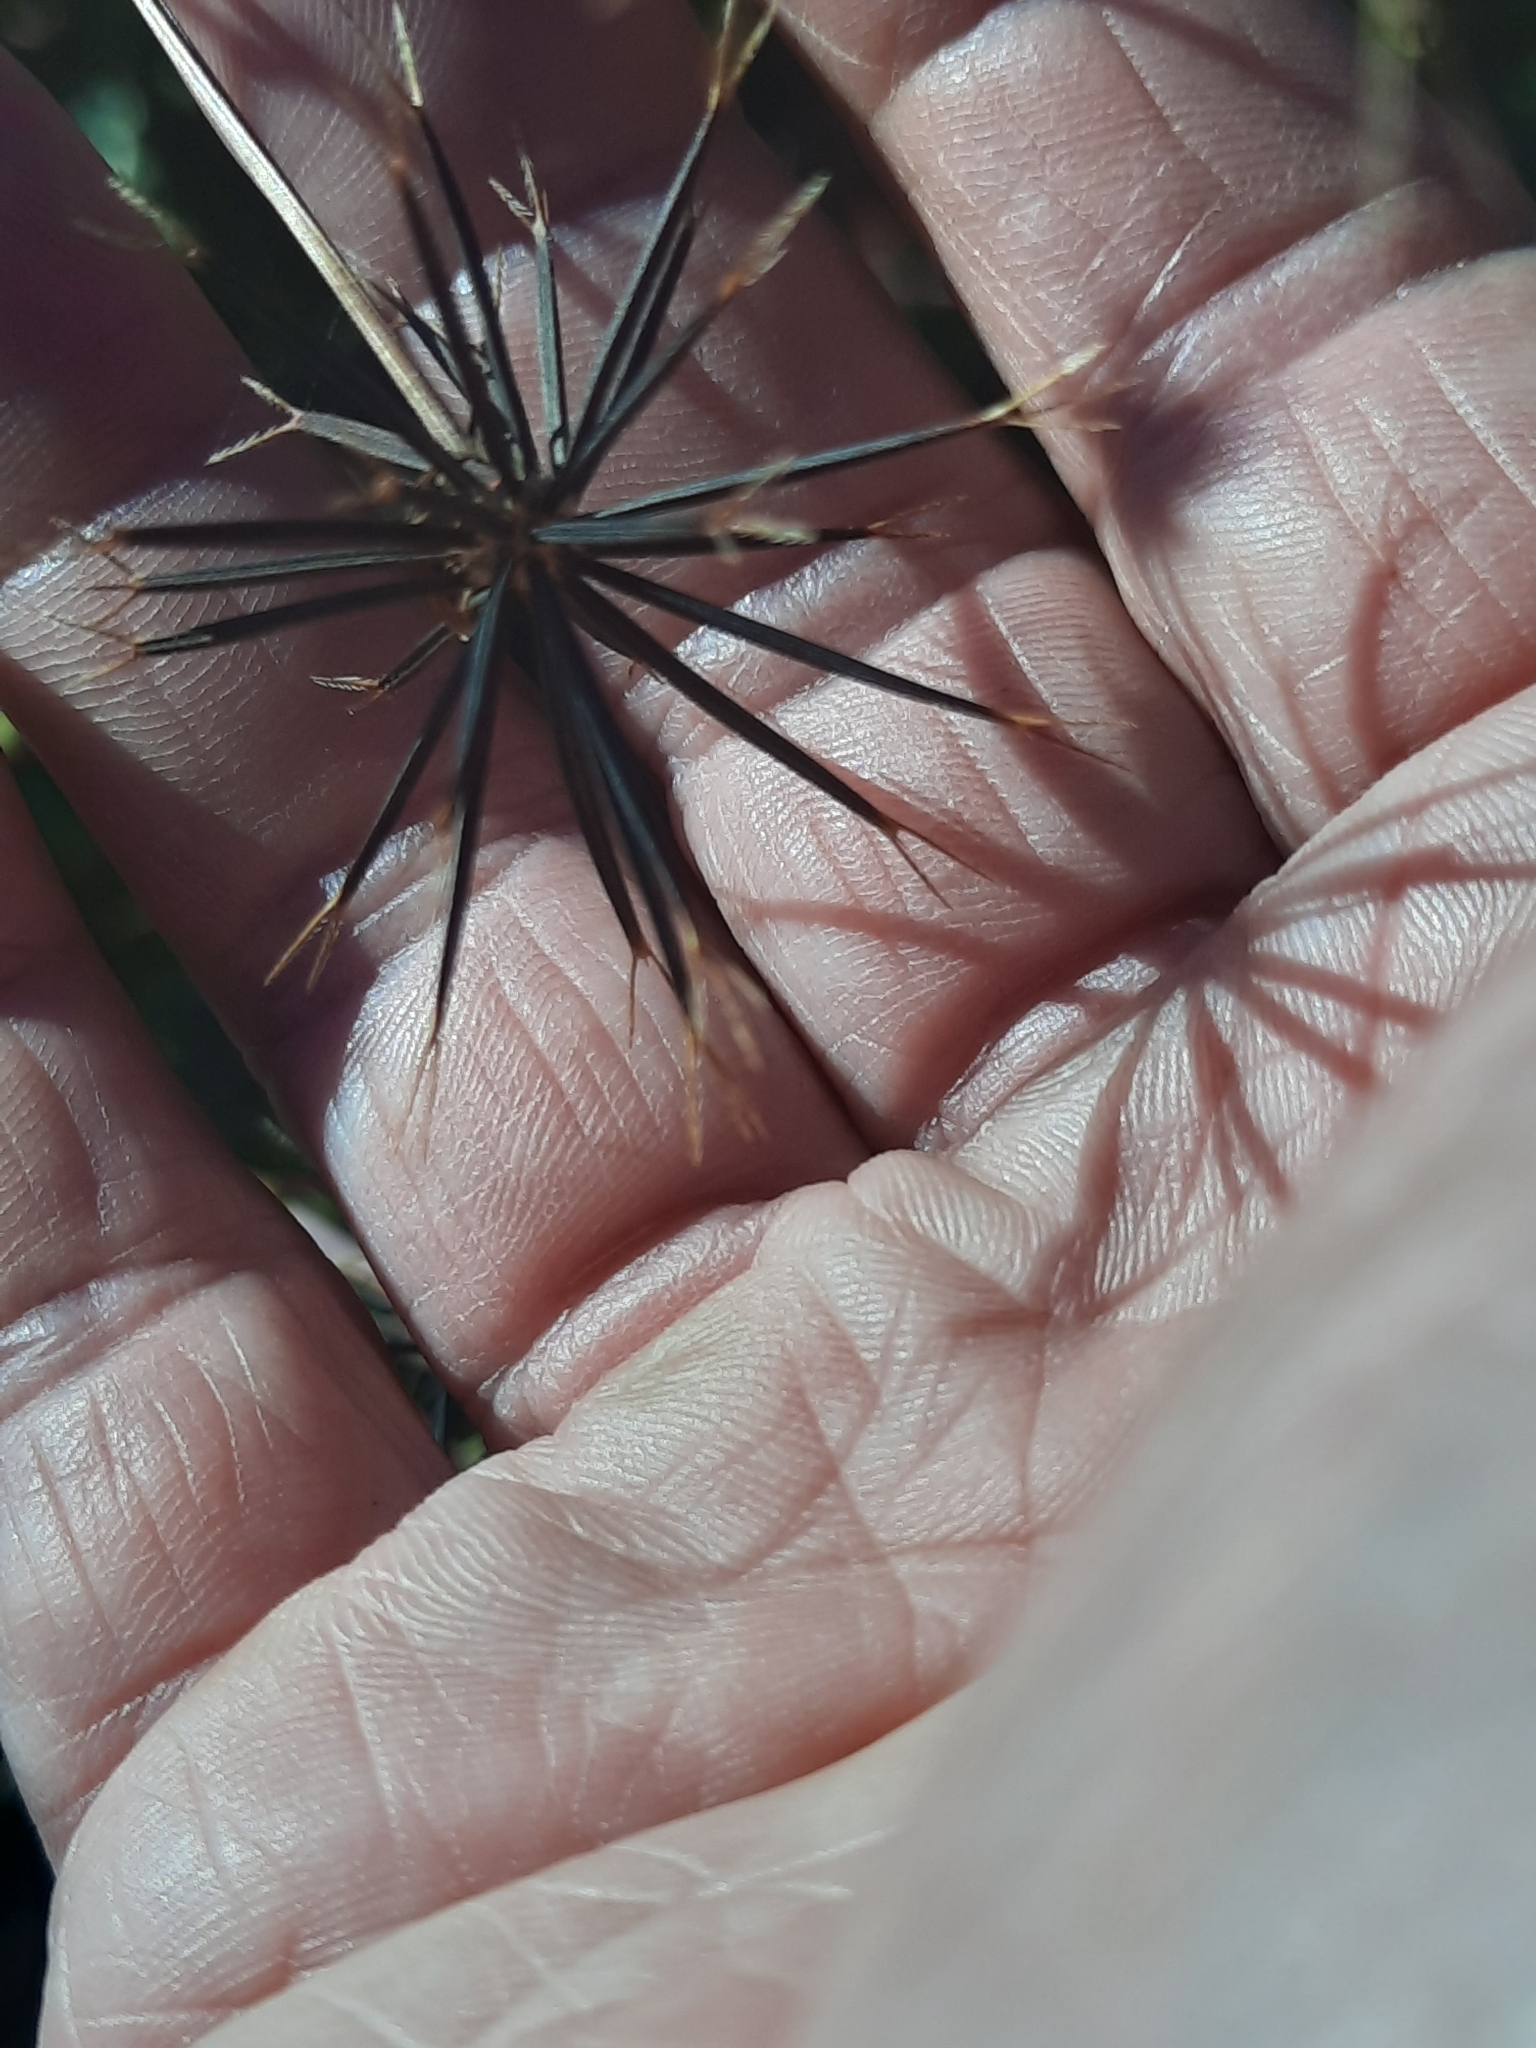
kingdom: Plantae
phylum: Tracheophyta
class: Magnoliopsida
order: Asterales
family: Asteraceae
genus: Bidens
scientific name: Bidens bipinnata
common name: Spanish-needles
